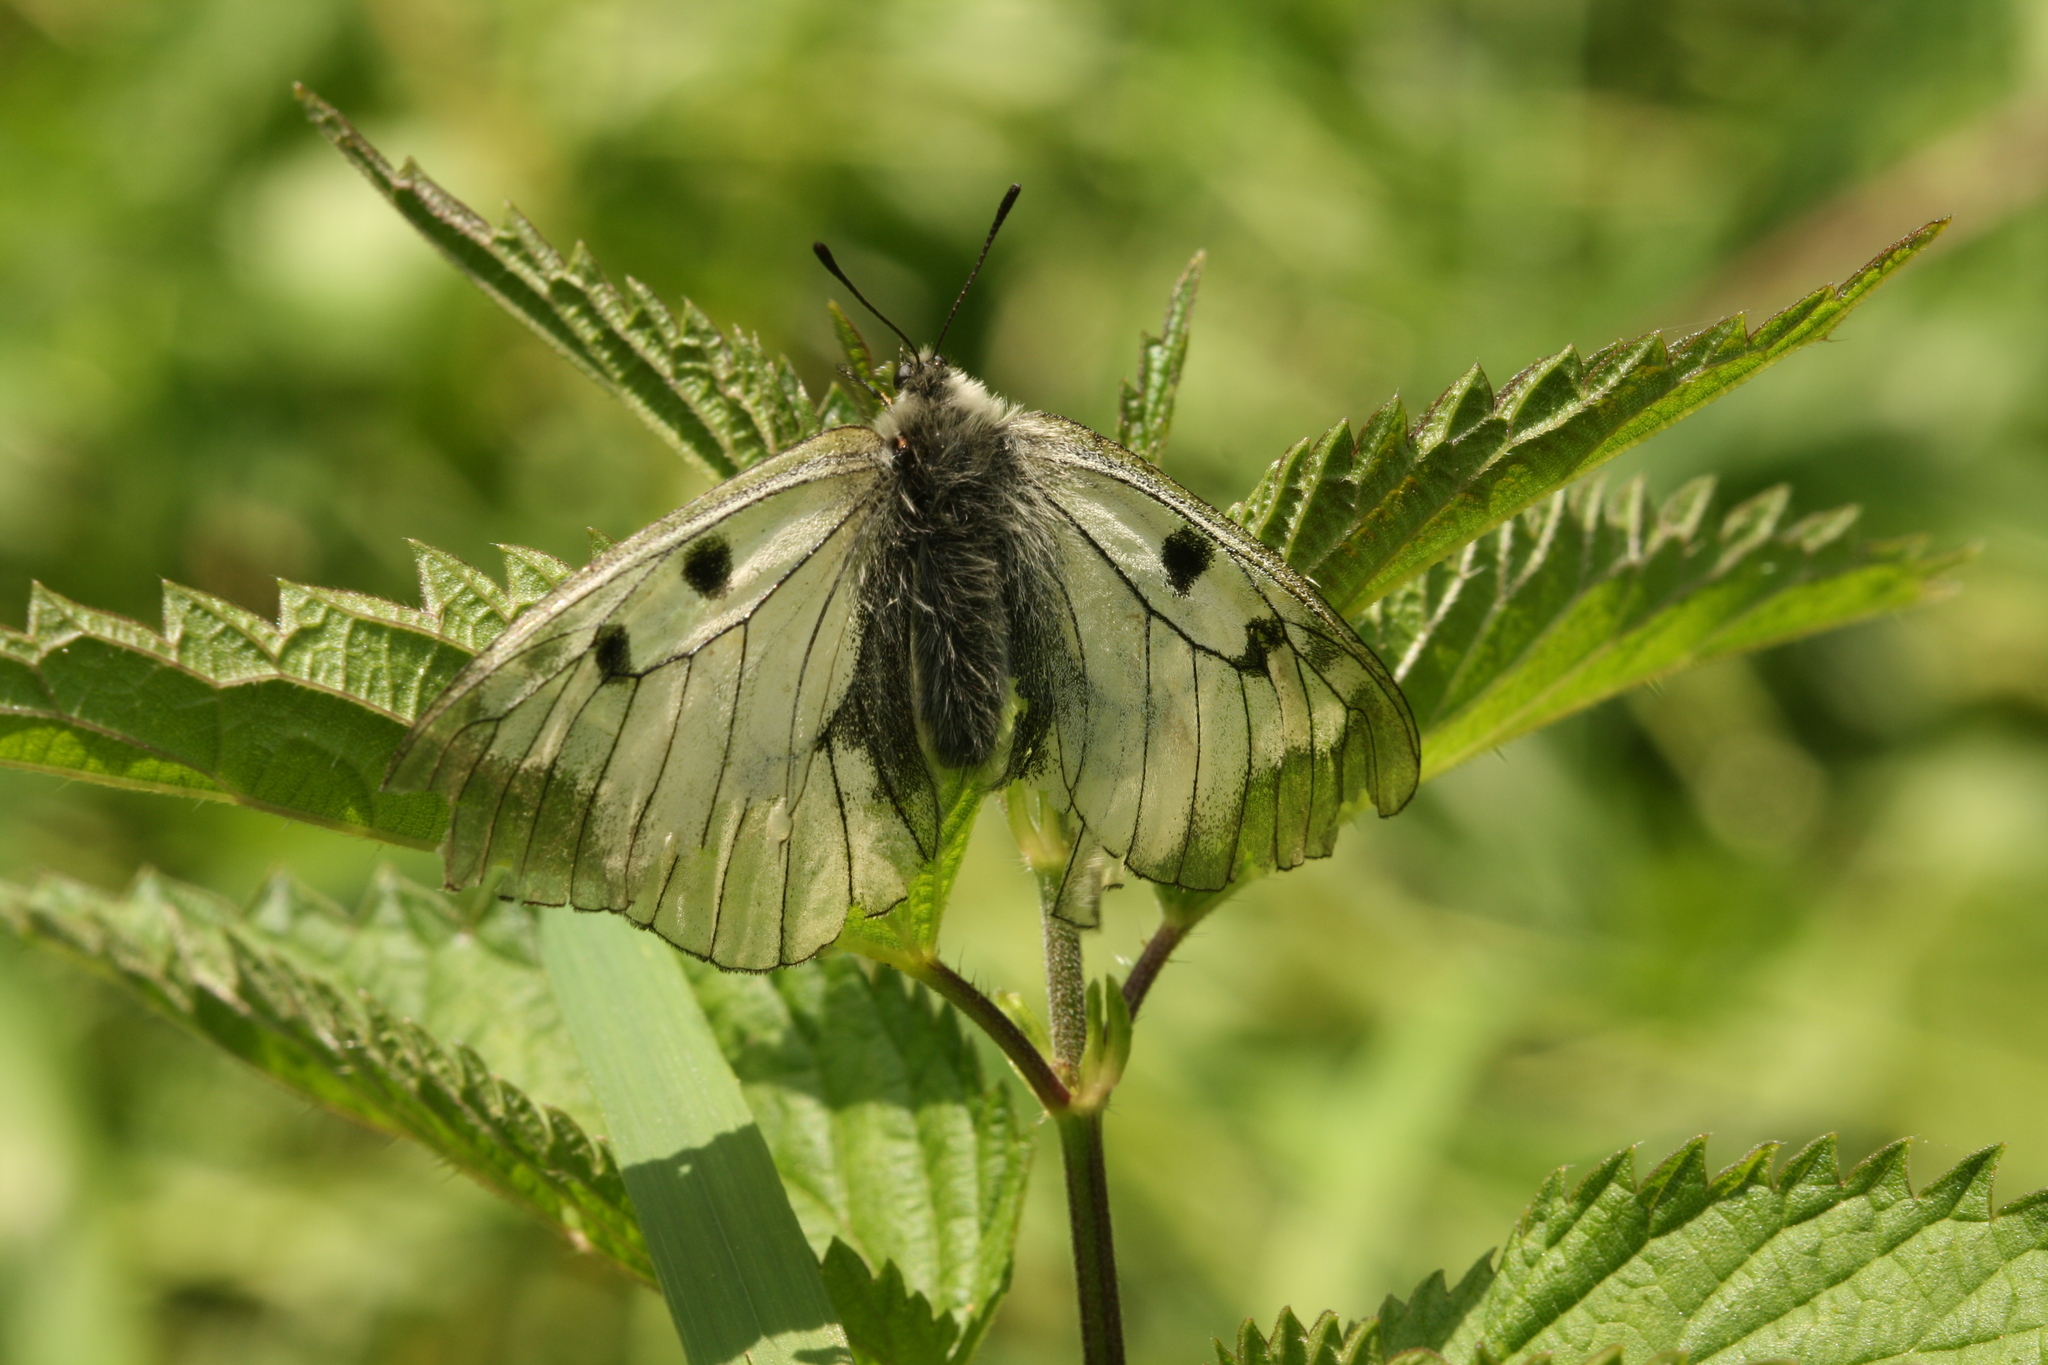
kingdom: Animalia
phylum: Arthropoda
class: Insecta
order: Lepidoptera
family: Papilionidae
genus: Parnassius
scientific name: Parnassius mnemosyne
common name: Clouded apollo
